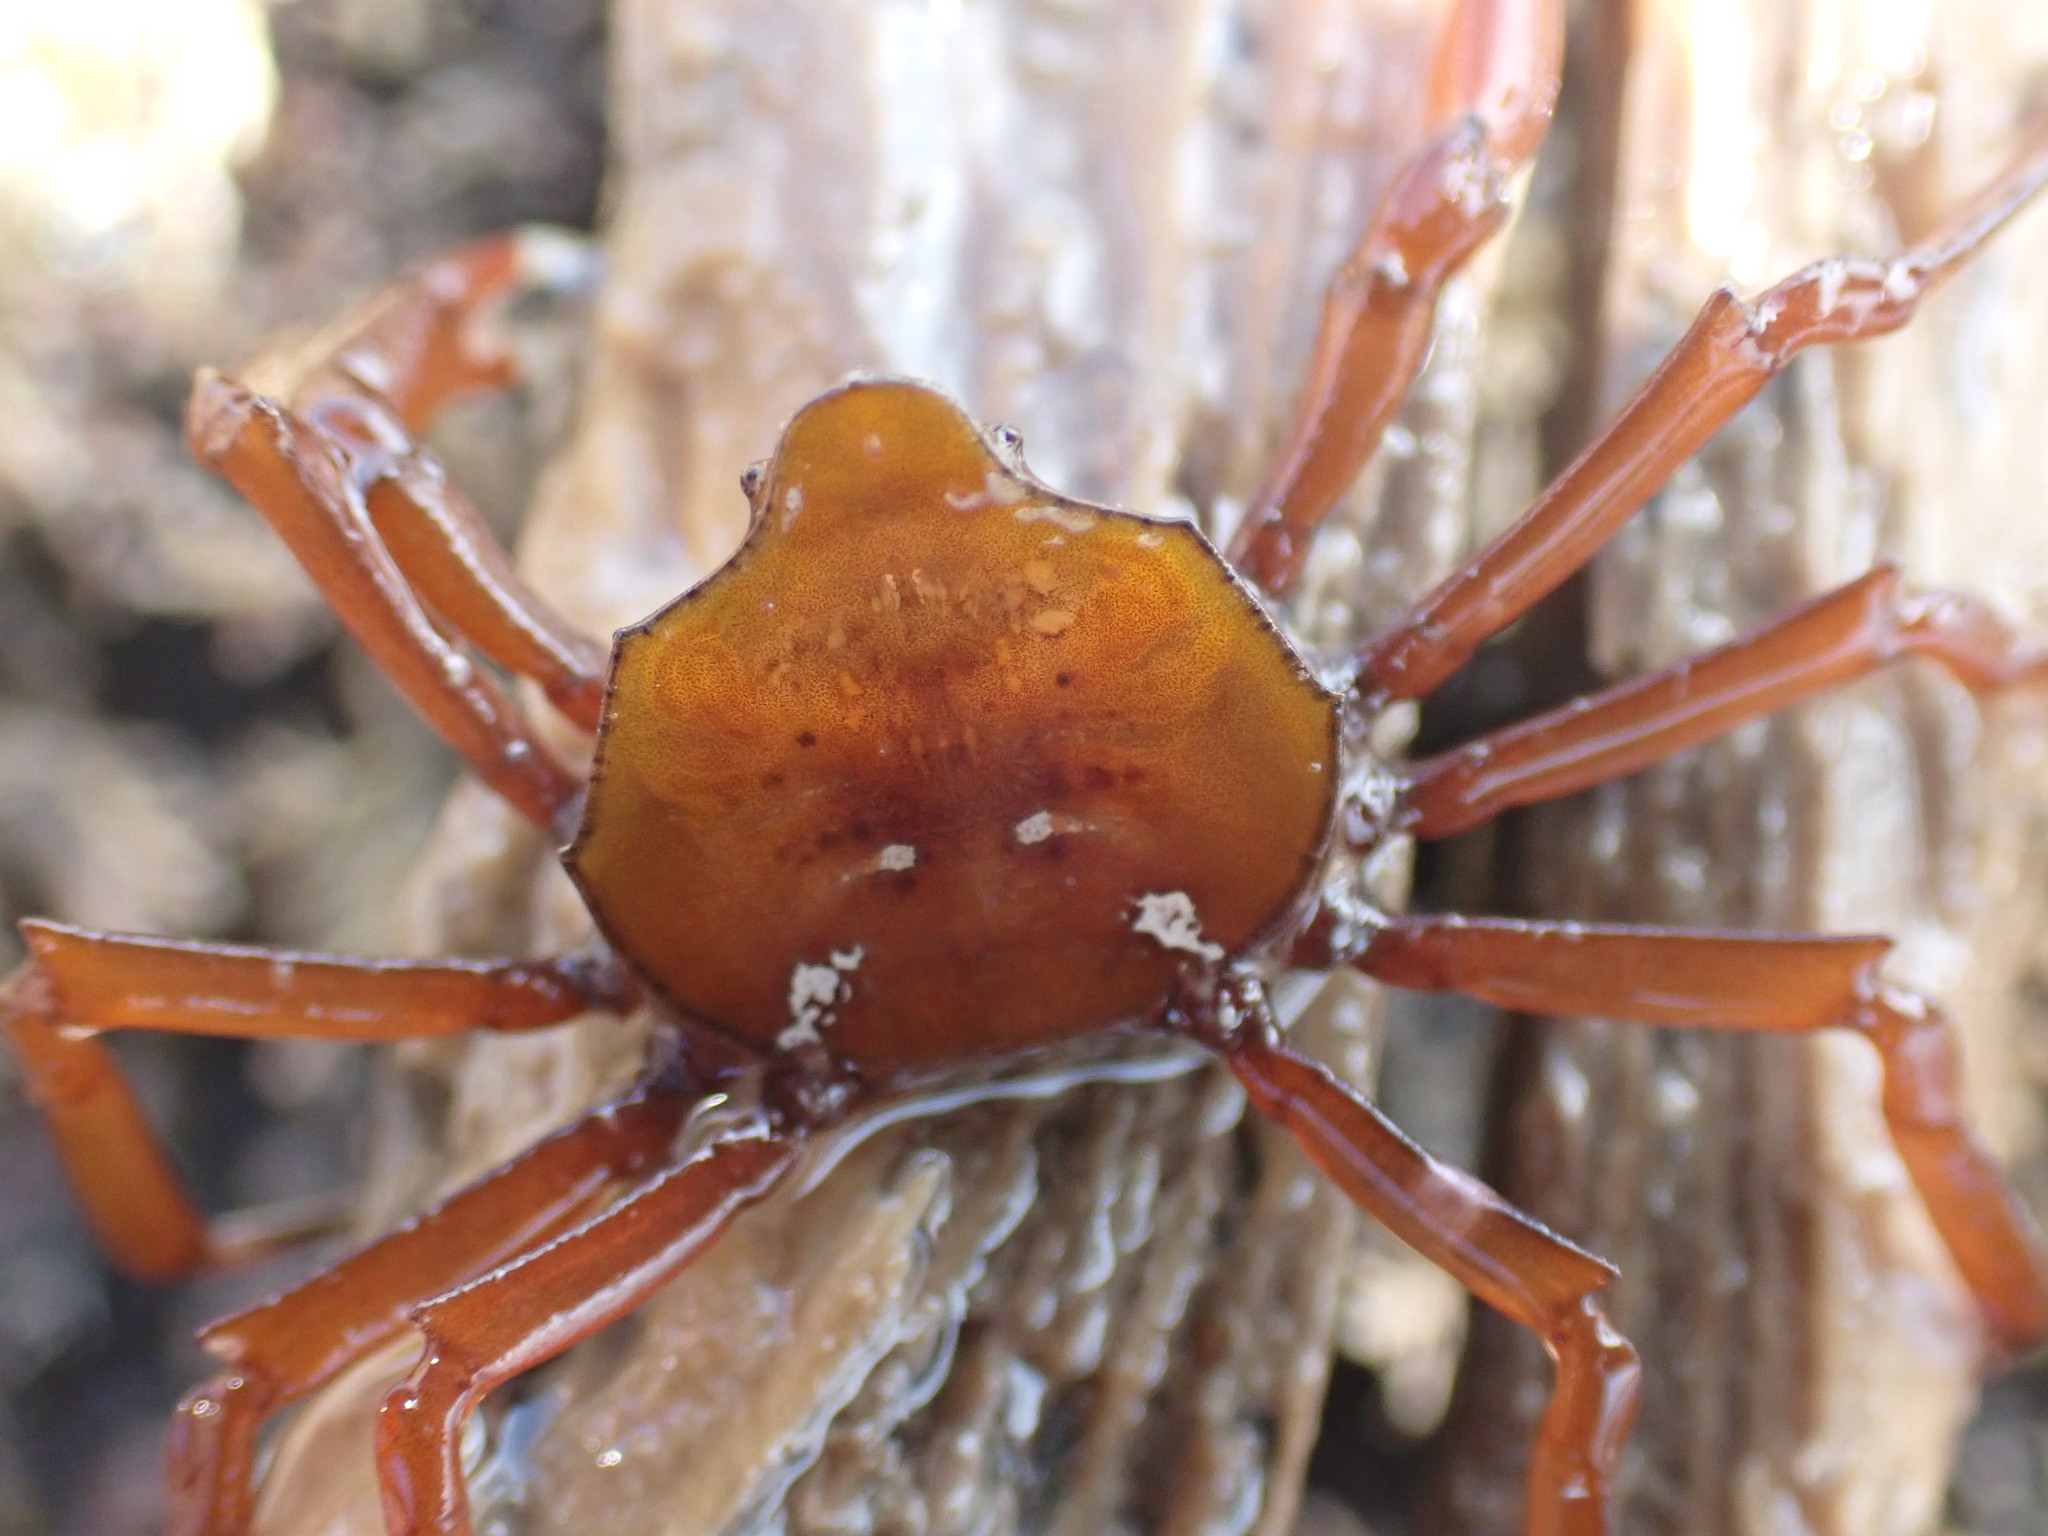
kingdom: Animalia
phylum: Arthropoda
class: Malacostraca
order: Decapoda
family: Hymenosomatidae
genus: Elamena
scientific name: Elamena producta
